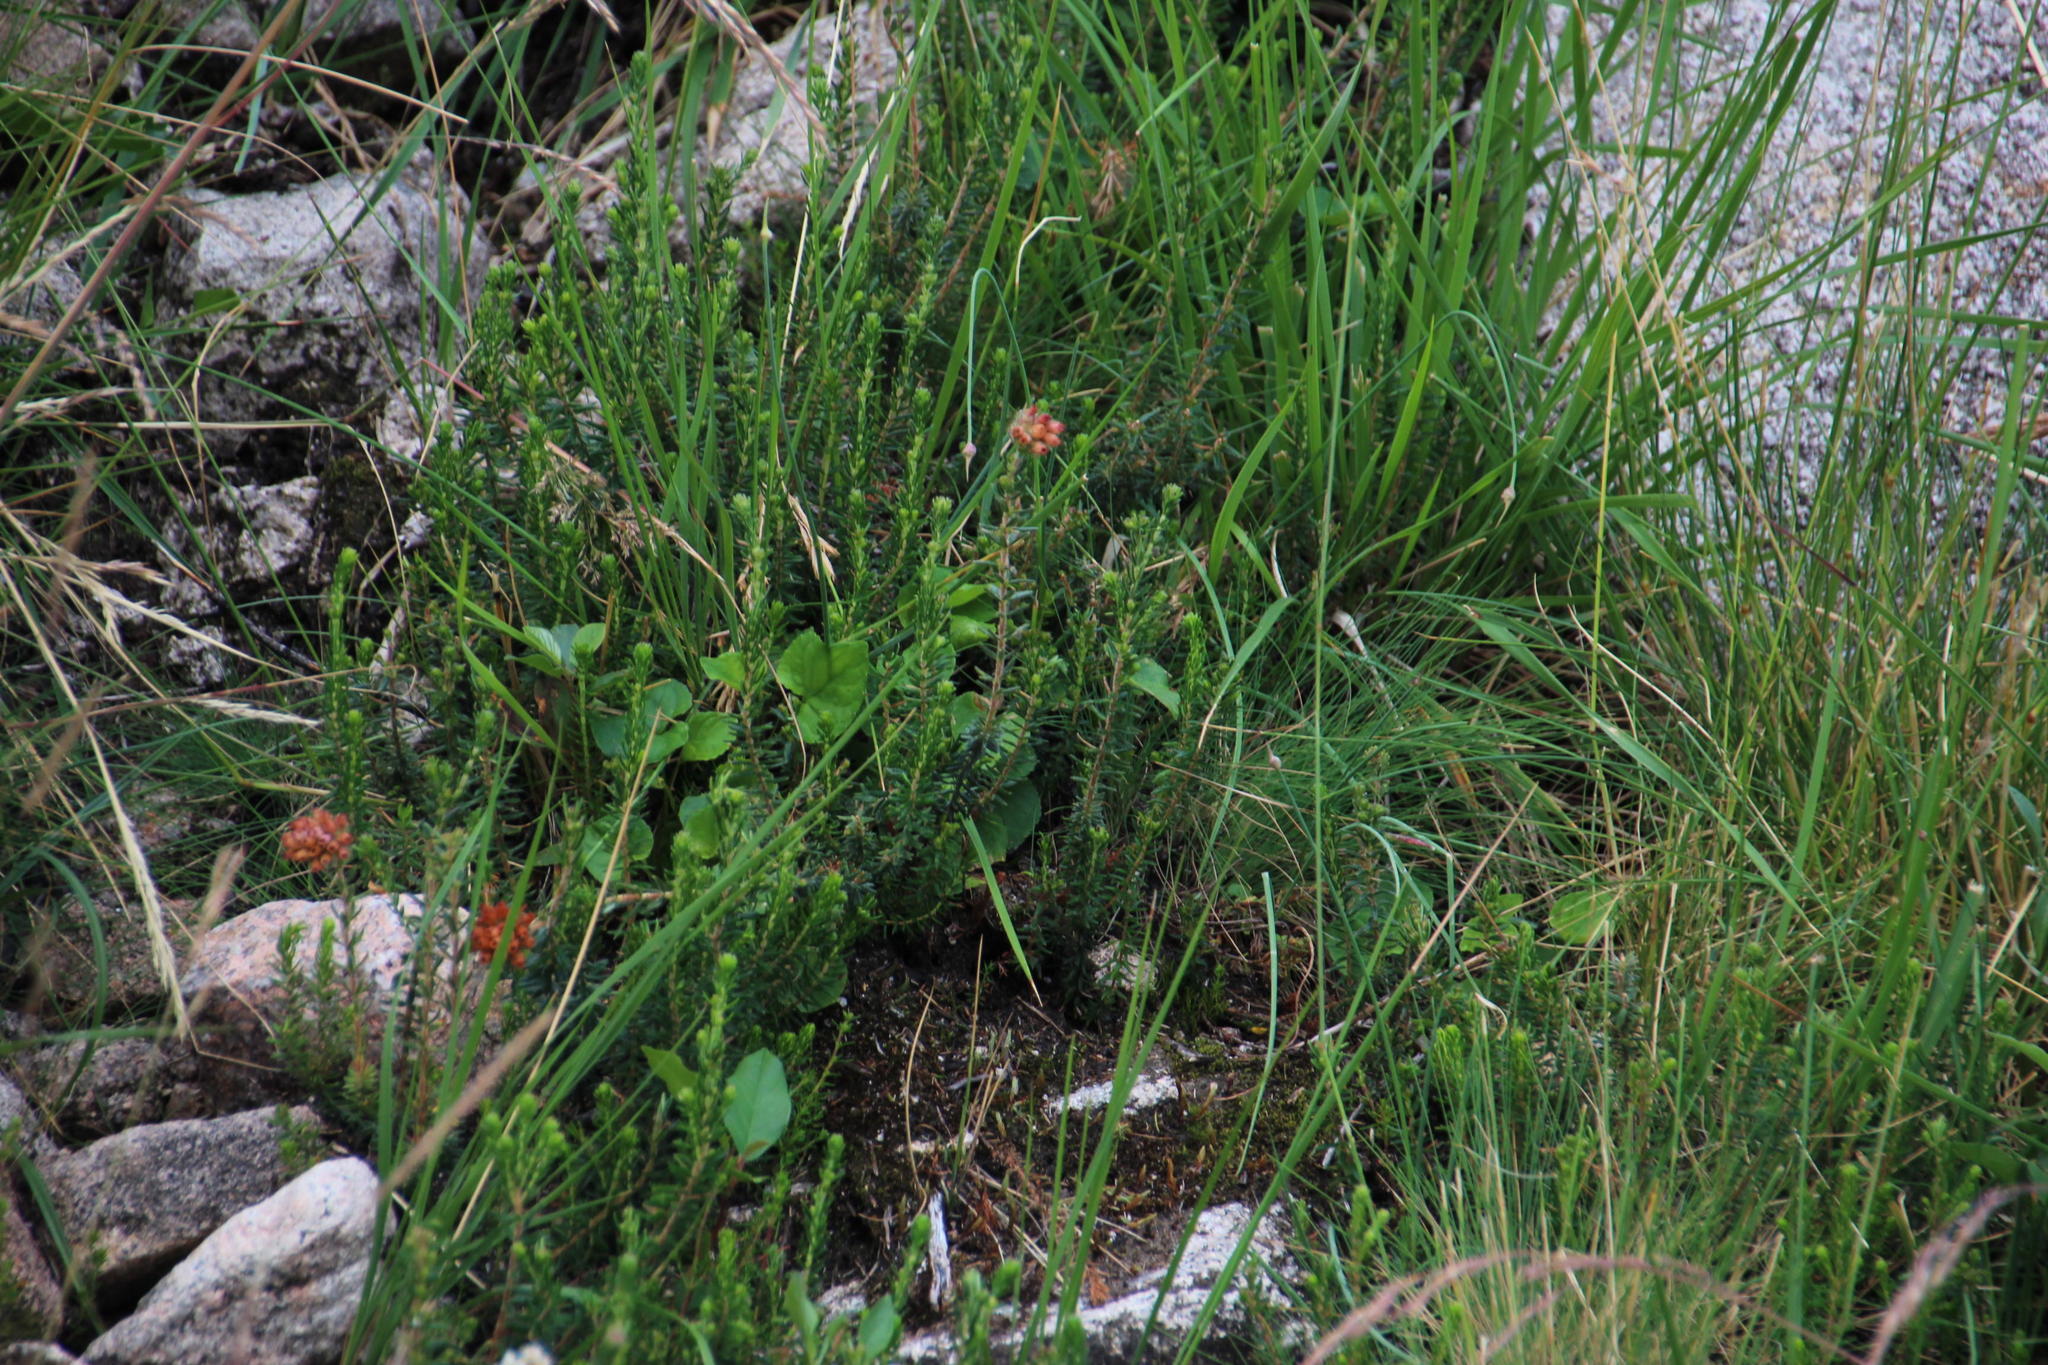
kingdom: Plantae
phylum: Tracheophyta
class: Magnoliopsida
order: Ericales
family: Ericaceae
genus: Erica
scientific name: Erica tetralix
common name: Cross-leaved heath
